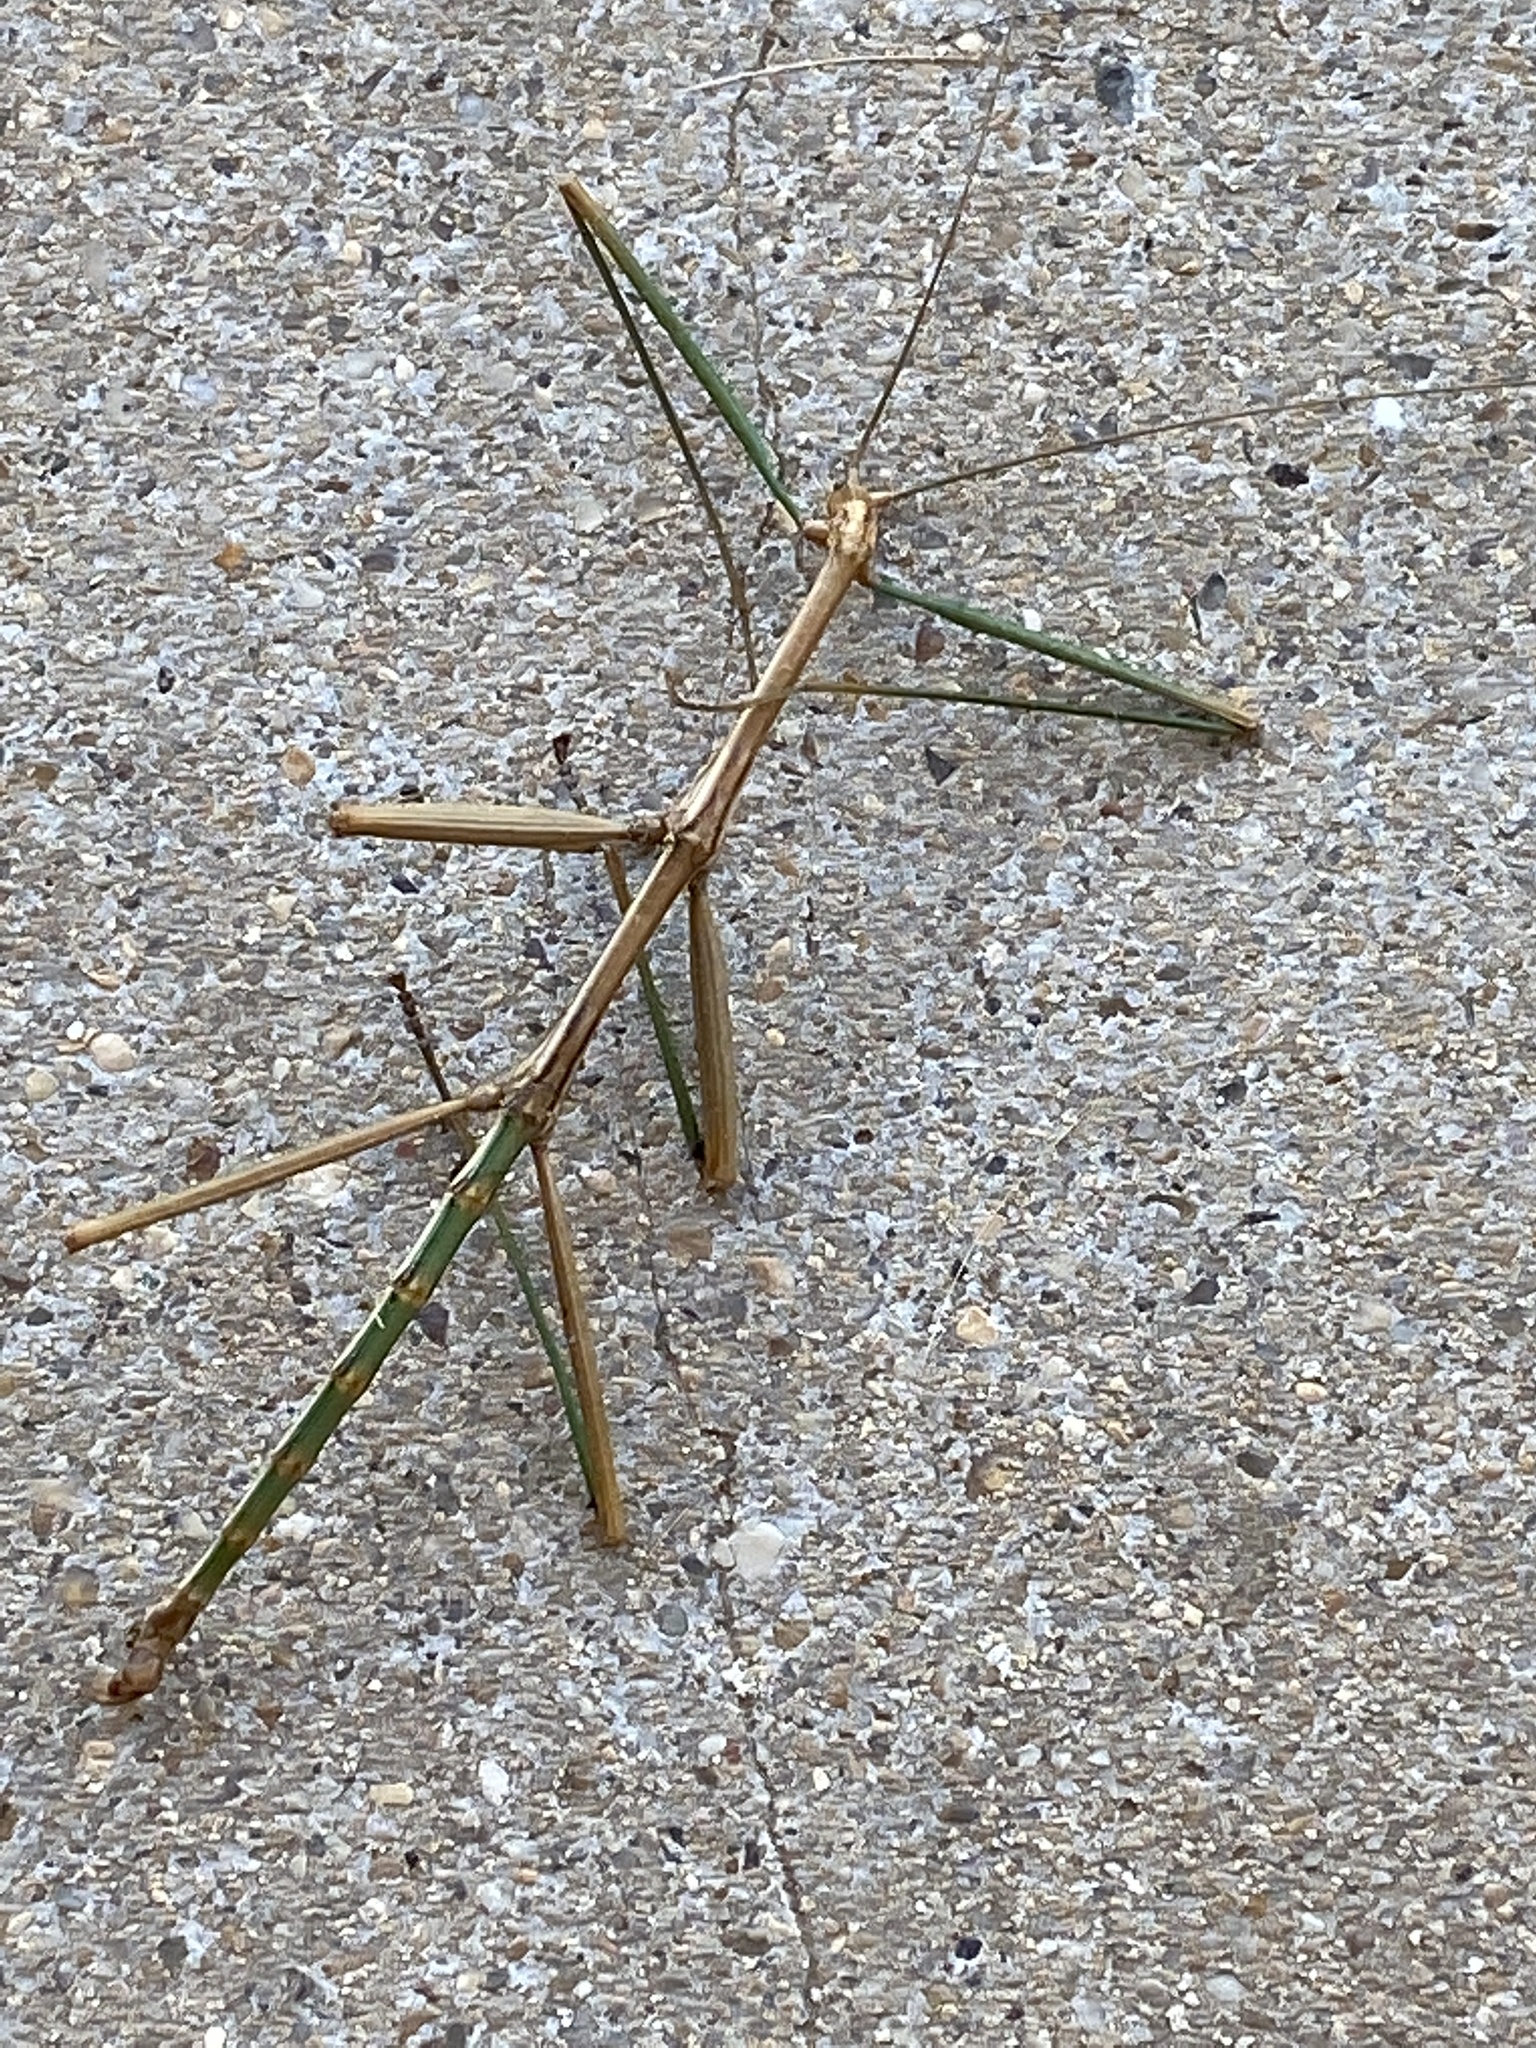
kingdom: Animalia
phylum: Arthropoda
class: Insecta
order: Phasmida
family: Diapheromeridae
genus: Megaphasma
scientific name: Megaphasma denticrus
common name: Giant walkingstick
